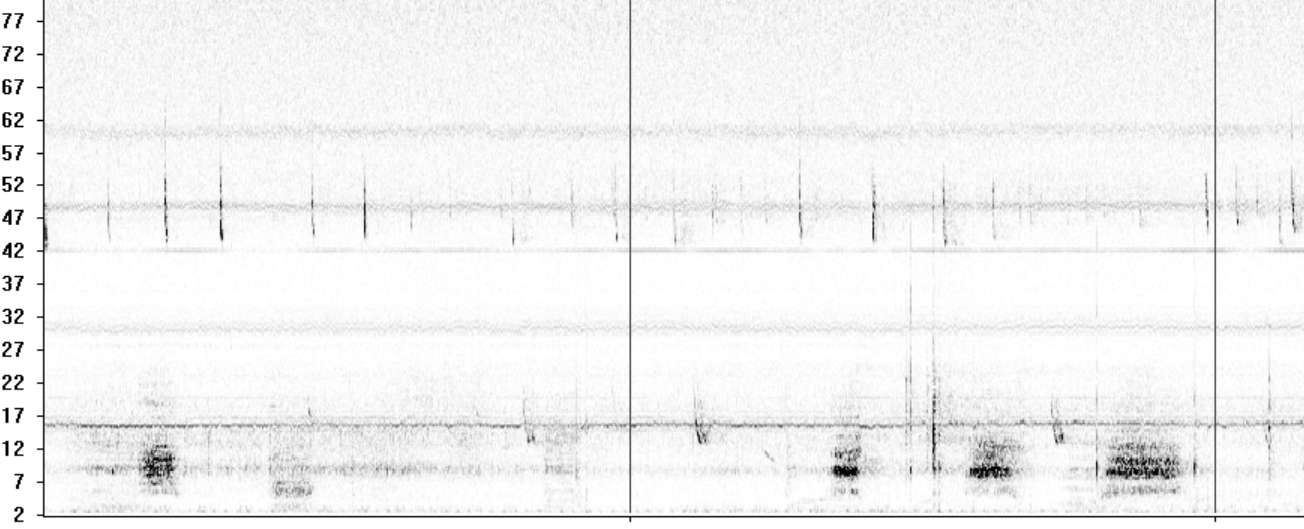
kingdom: Animalia
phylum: Chordata
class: Mammalia
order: Chiroptera
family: Vespertilionidae
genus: Pipistrellus
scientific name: Pipistrellus kuhlii
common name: Kuhl's pipistrelle
